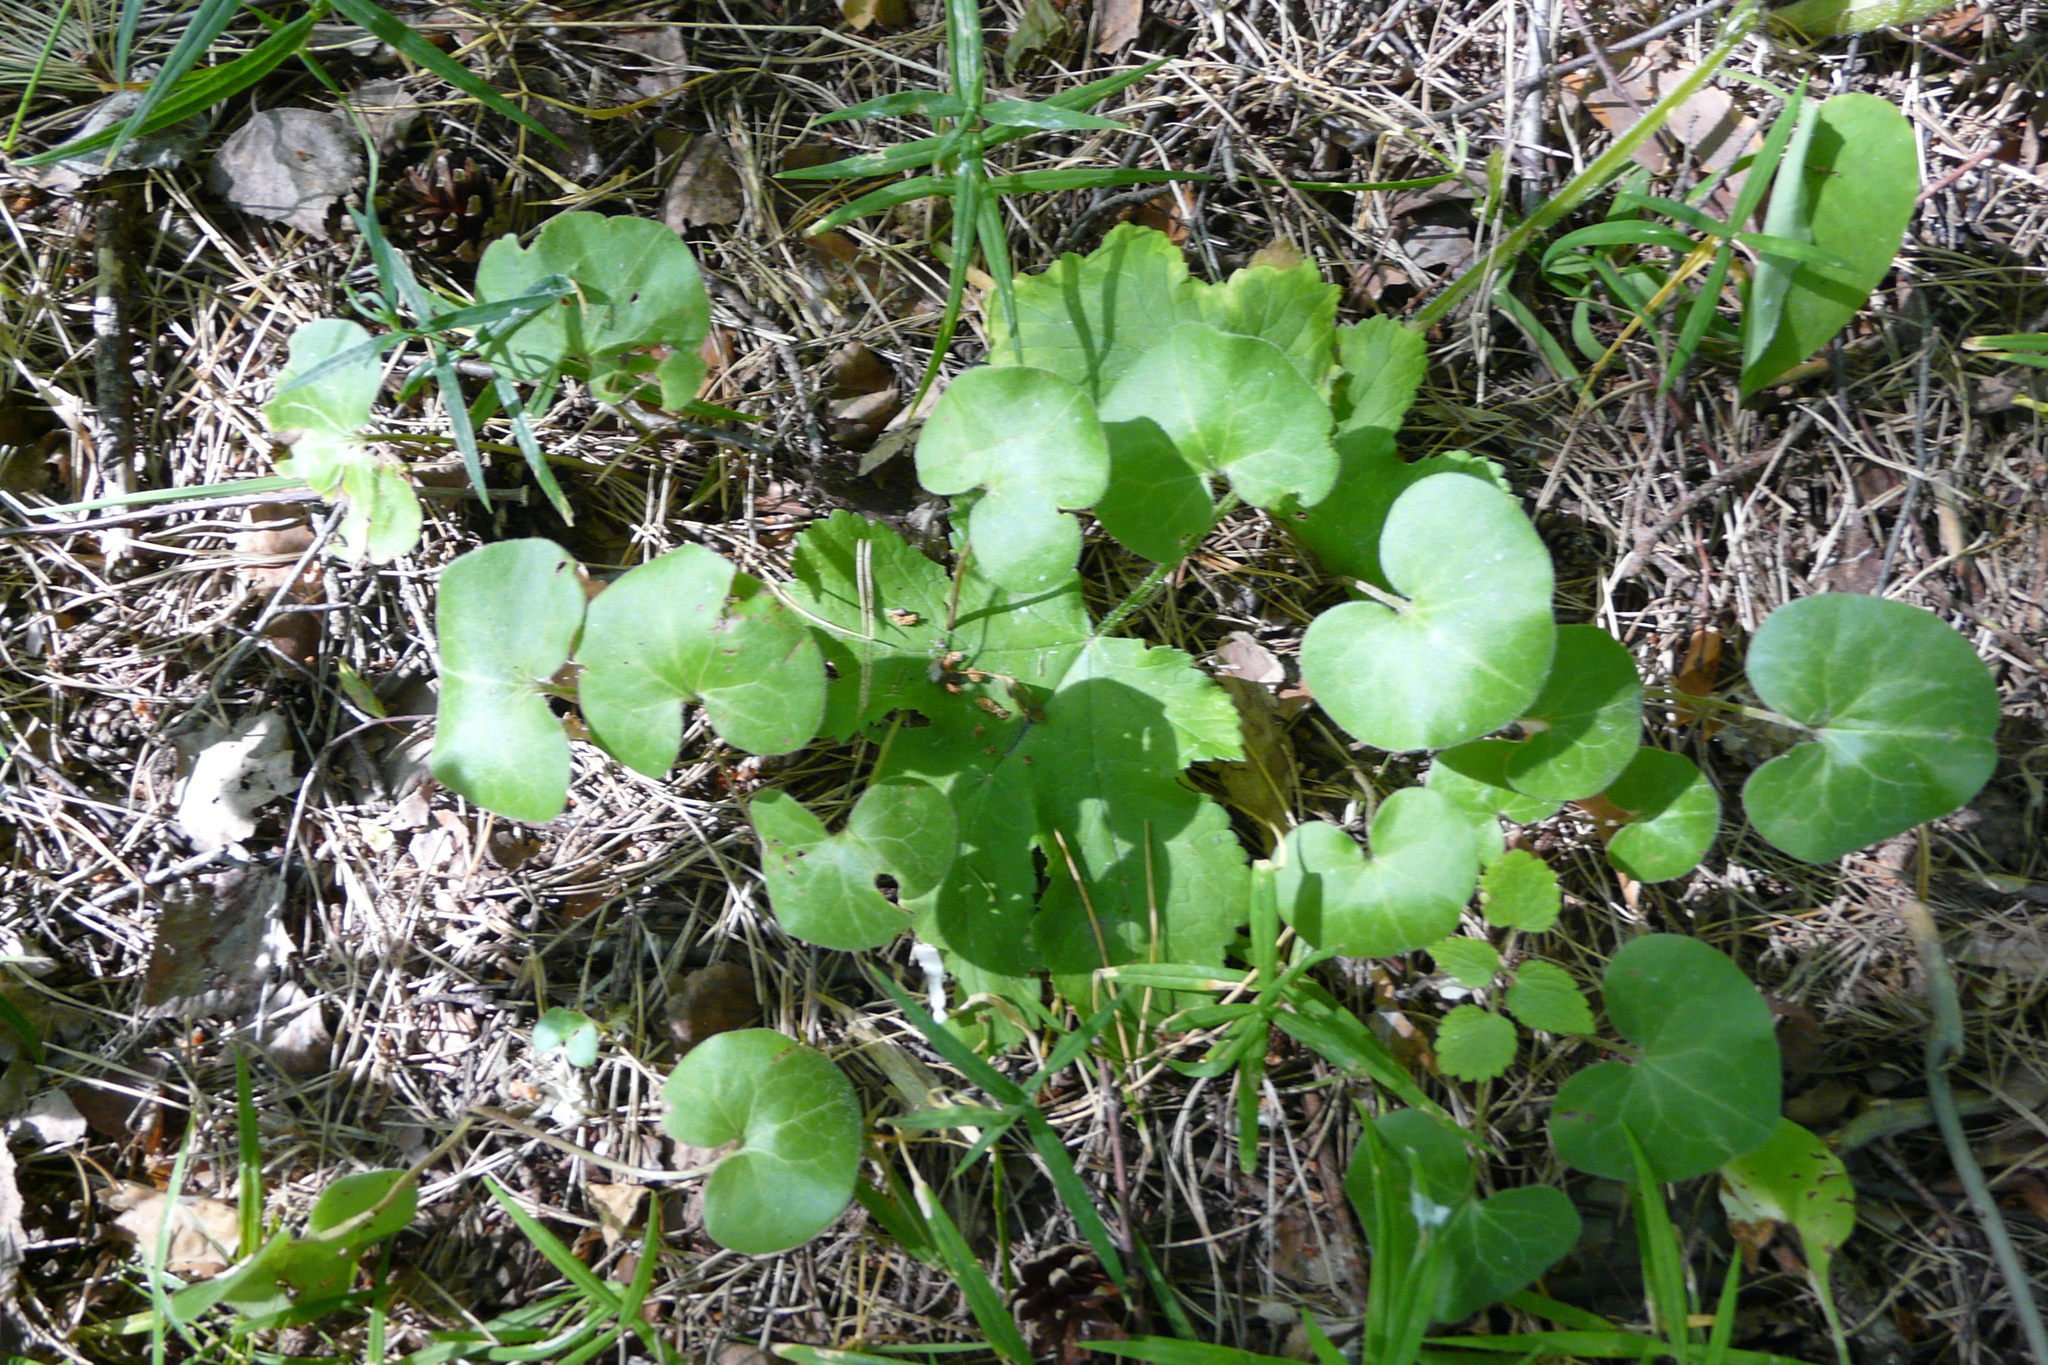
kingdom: Plantae
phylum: Tracheophyta
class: Magnoliopsida
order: Piperales
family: Aristolochiaceae
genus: Asarum
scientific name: Asarum europaeum
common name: Asarabacca
